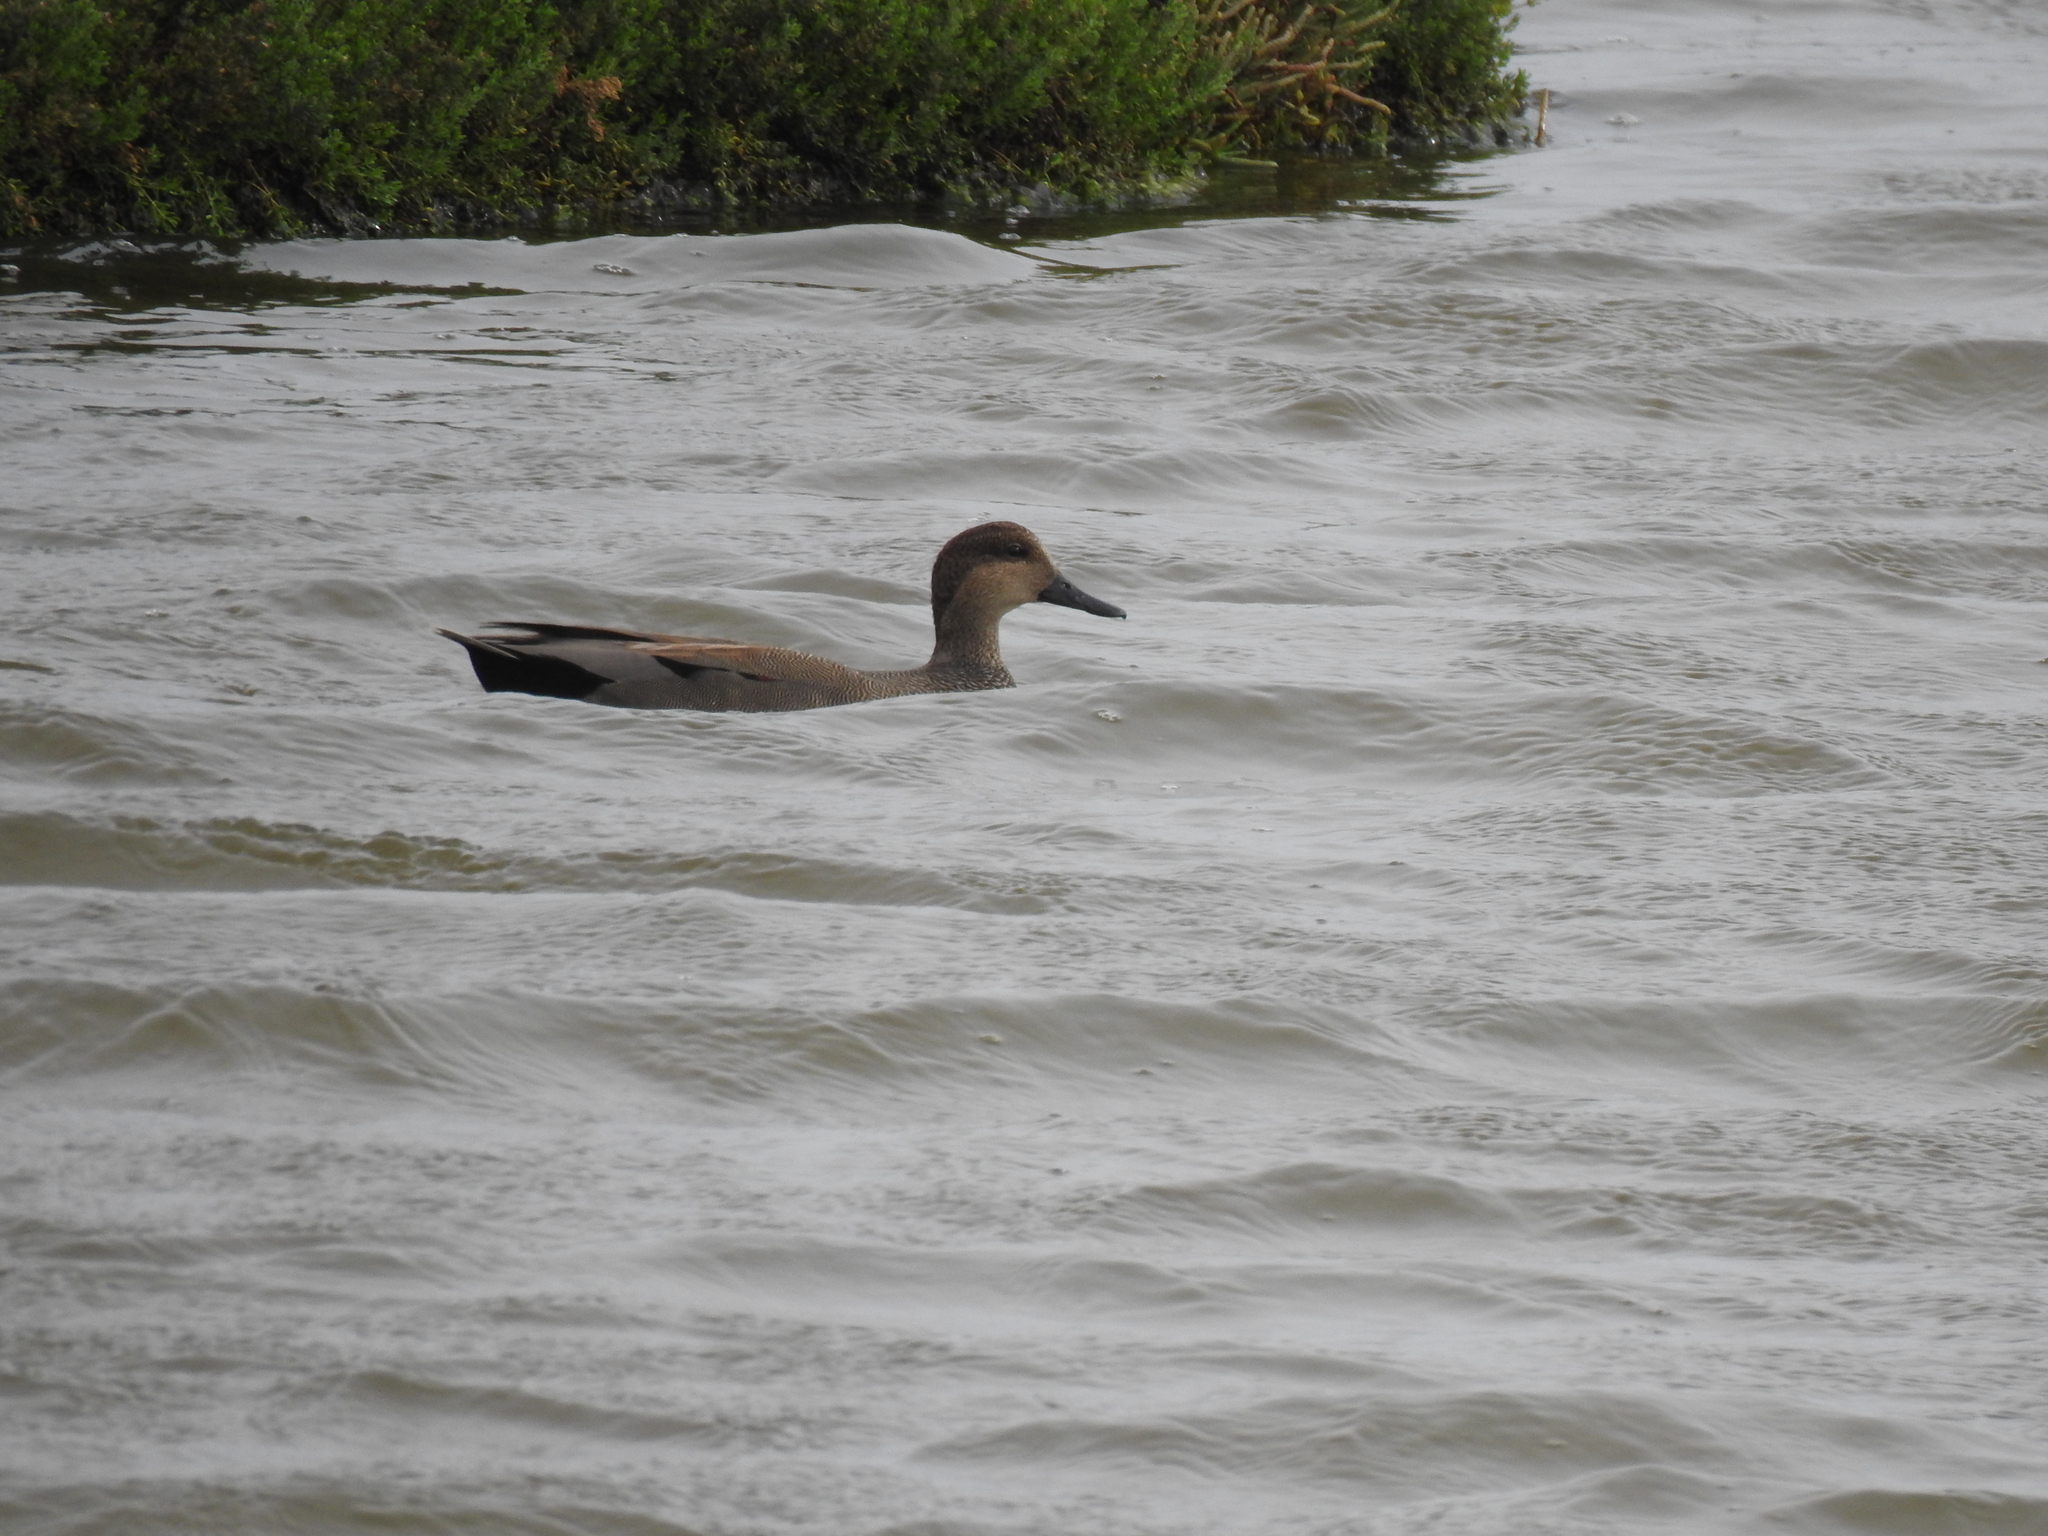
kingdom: Animalia
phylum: Chordata
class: Aves
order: Anseriformes
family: Anatidae
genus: Mareca
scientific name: Mareca strepera
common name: Gadwall
